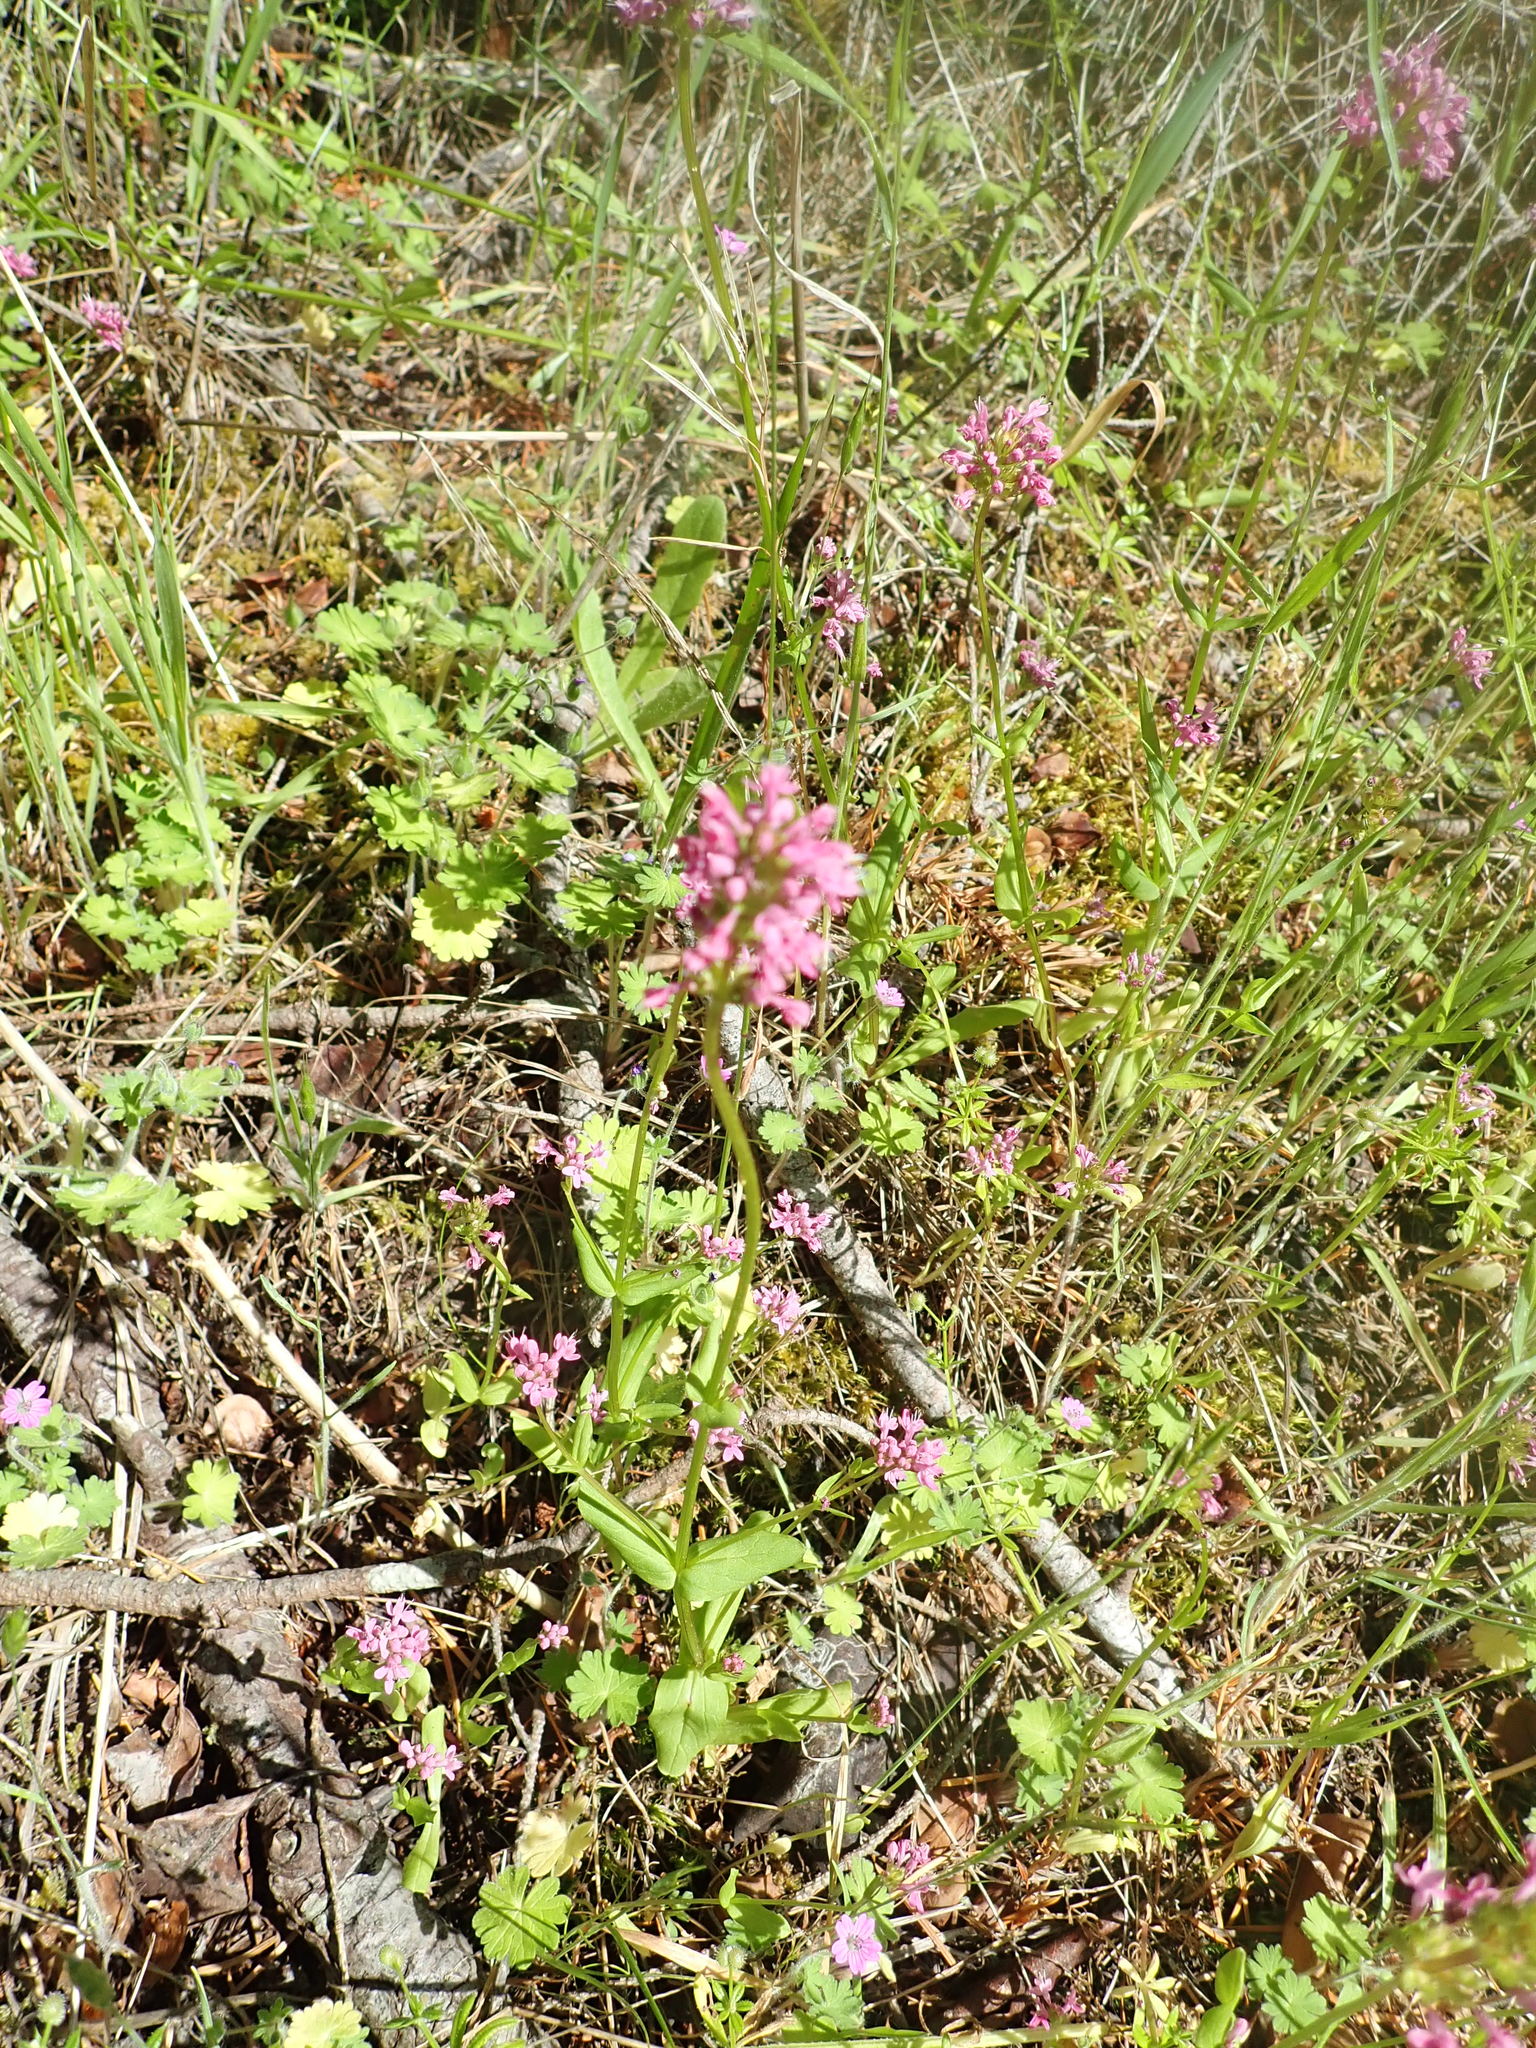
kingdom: Plantae
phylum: Tracheophyta
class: Magnoliopsida
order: Dipsacales
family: Caprifoliaceae
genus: Plectritis
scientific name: Plectritis congesta
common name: Pink plectritis
